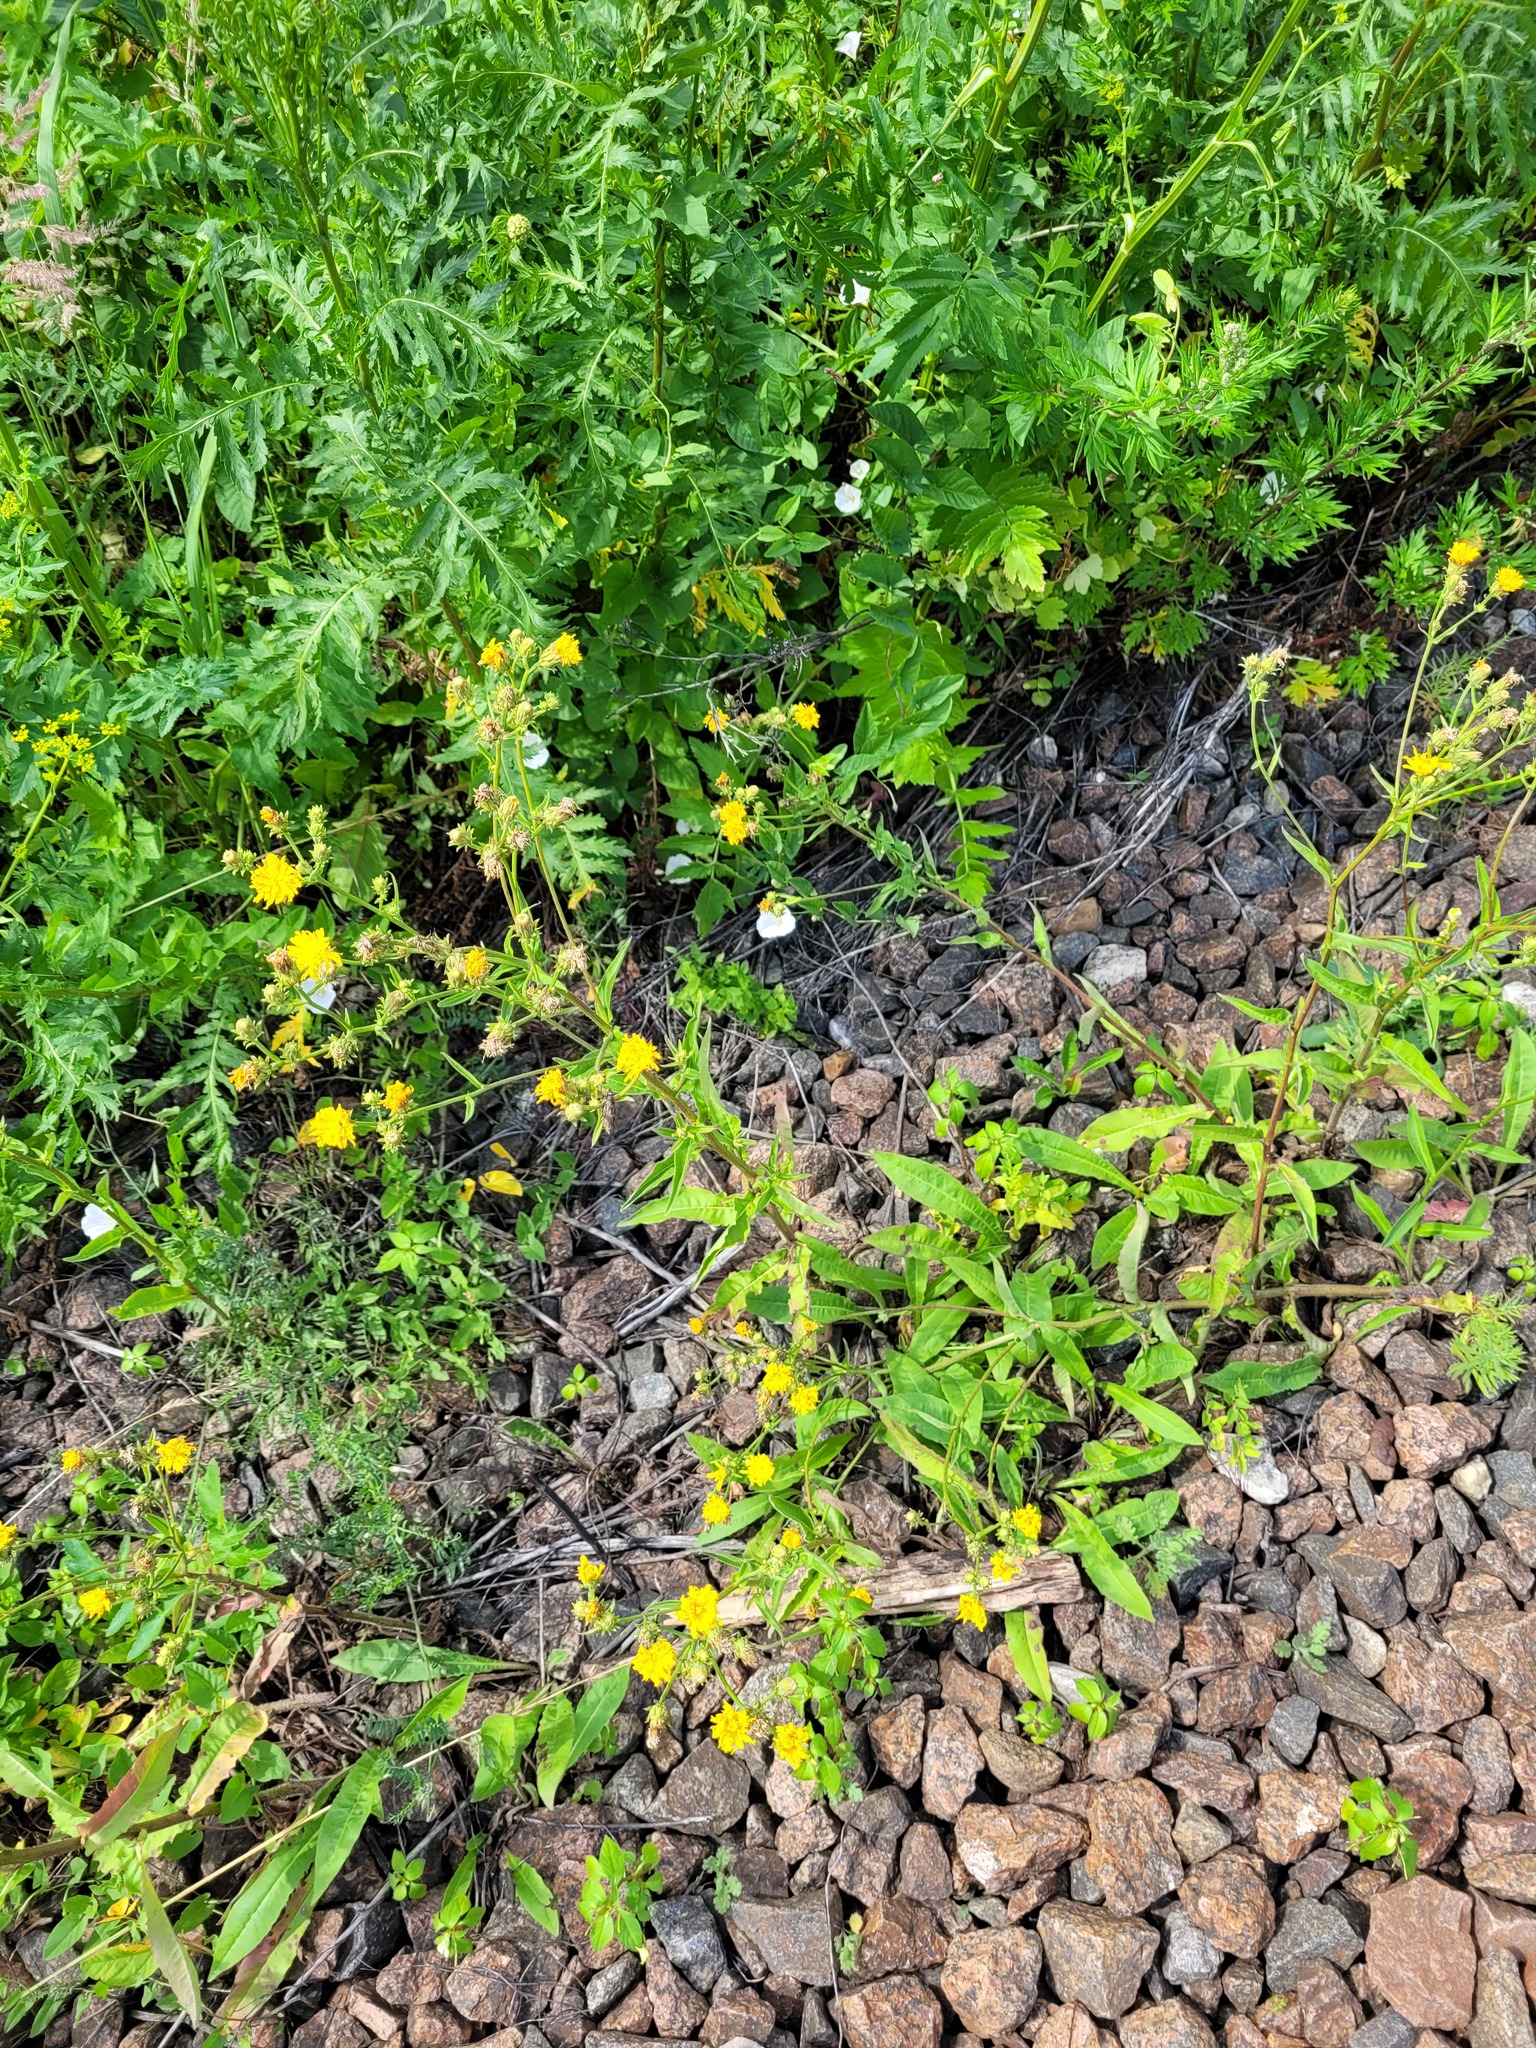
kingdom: Plantae
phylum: Tracheophyta
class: Magnoliopsida
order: Asterales
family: Asteraceae
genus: Picris
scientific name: Picris hieracioides
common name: Hawkweed oxtongue
